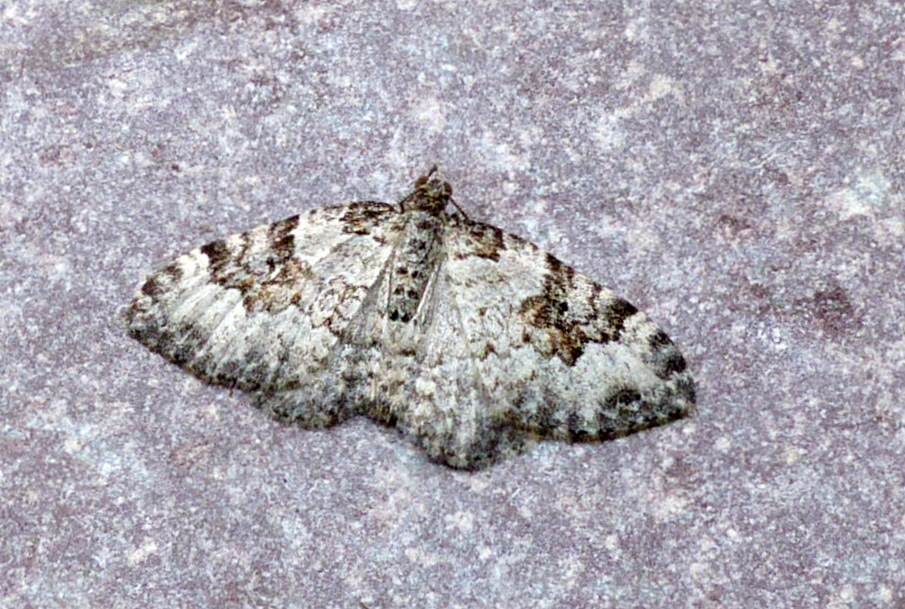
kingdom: Animalia
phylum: Arthropoda
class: Insecta
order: Lepidoptera
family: Geometridae
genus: Xanthorhoe
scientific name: Xanthorhoe iduata
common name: Broken-banded carpet
